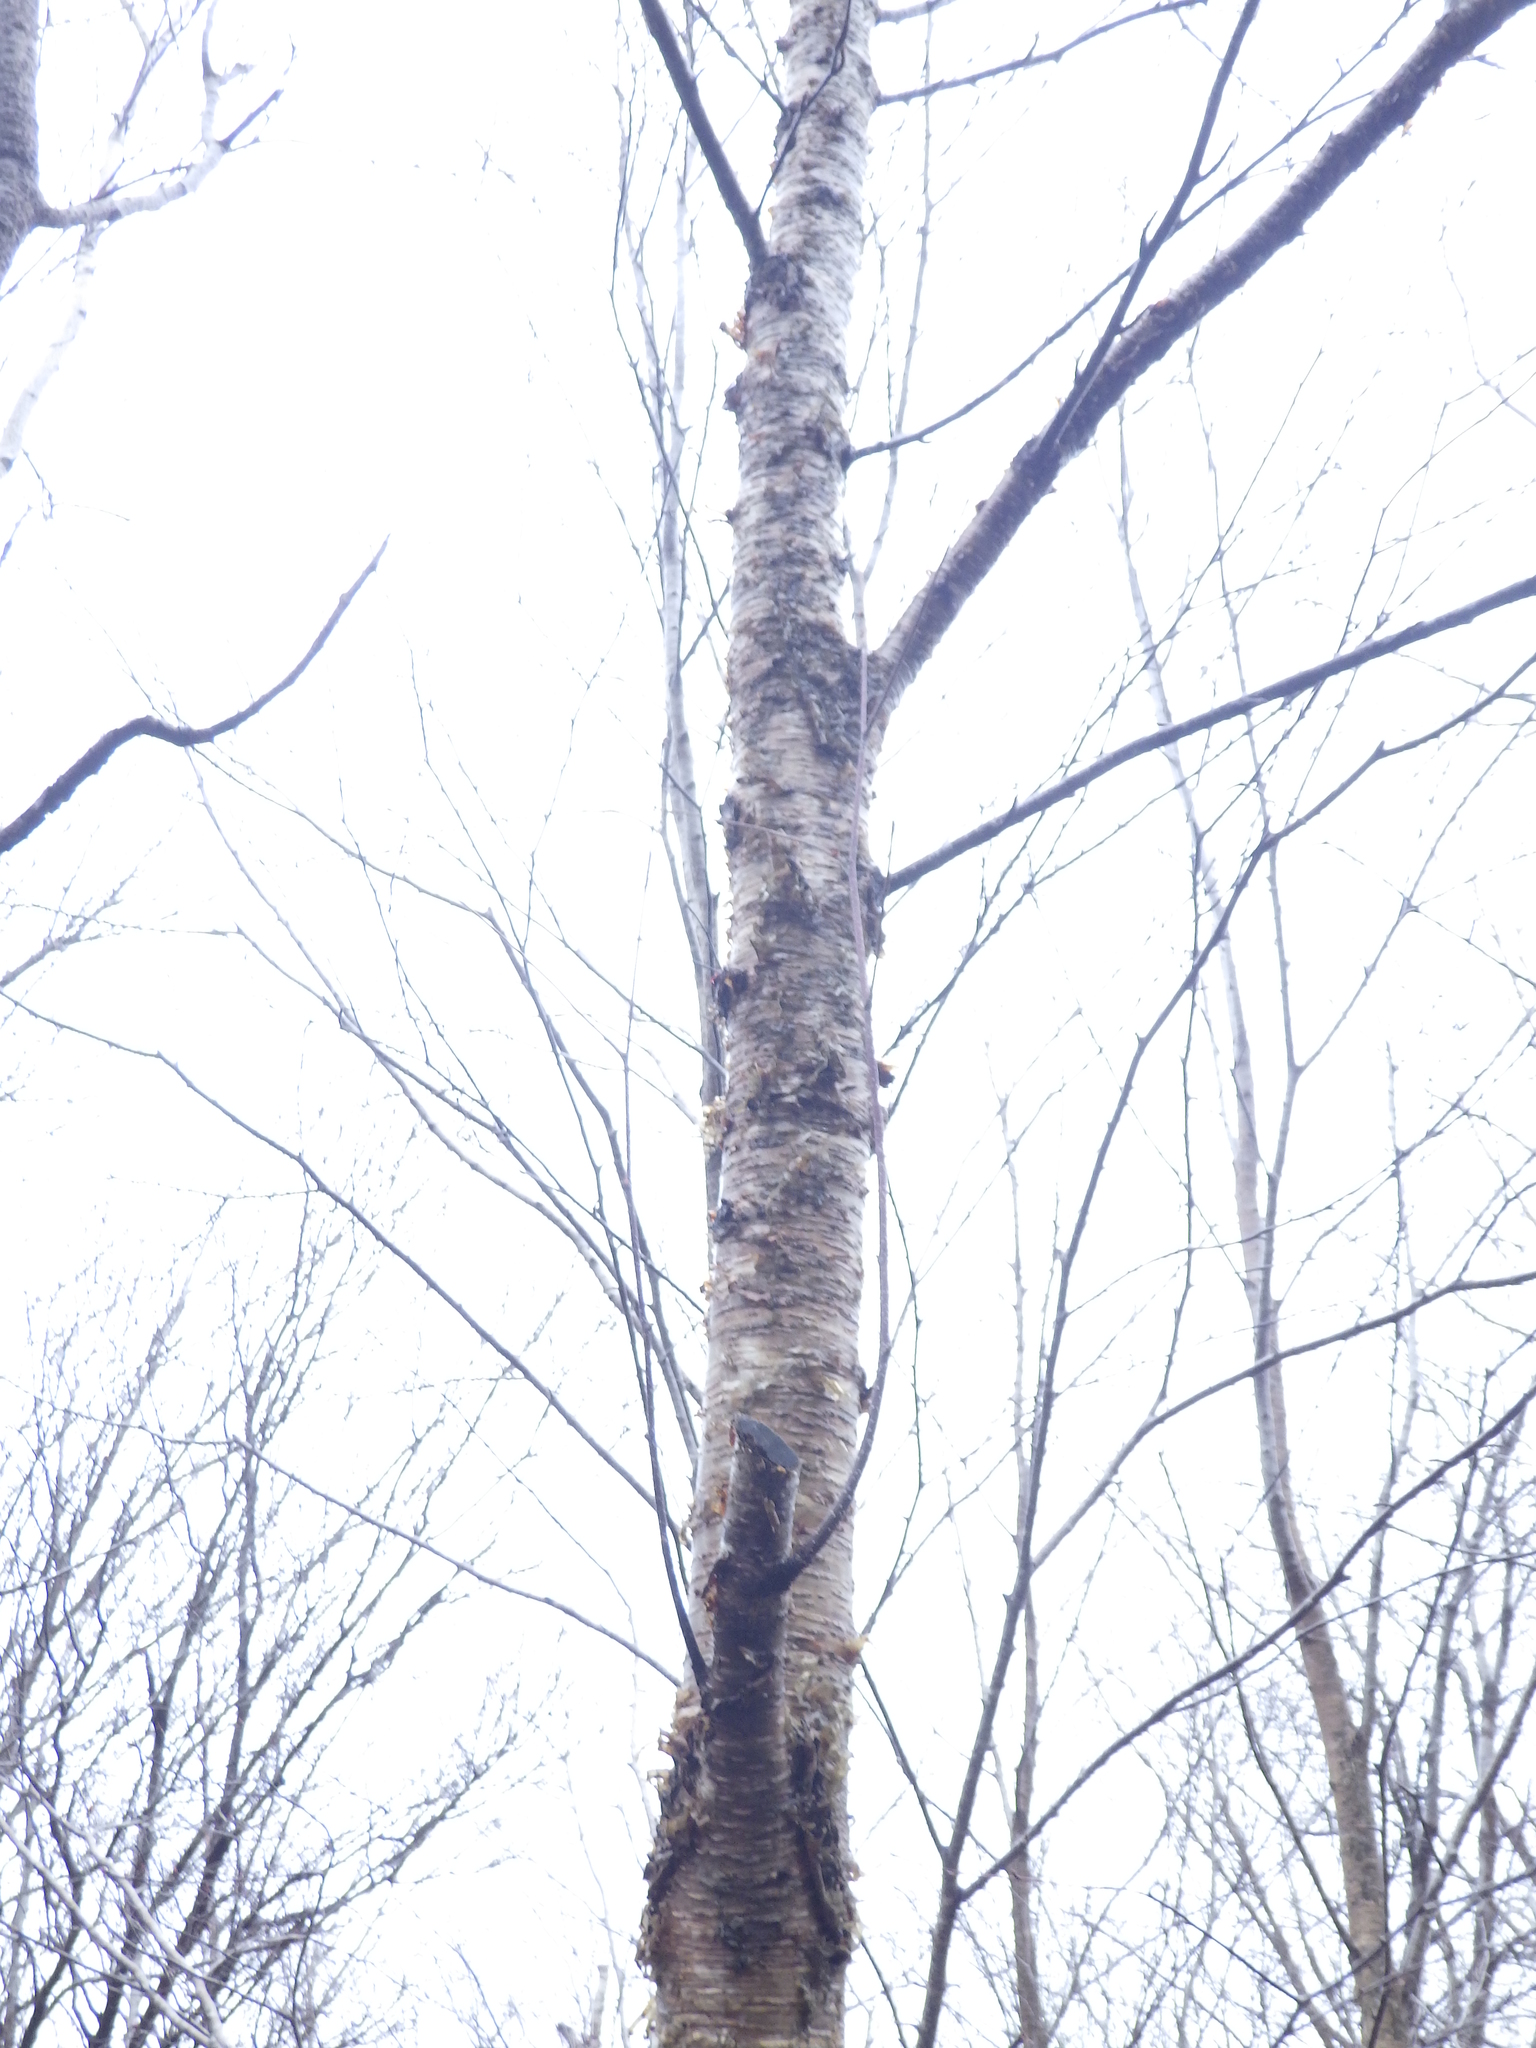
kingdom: Plantae
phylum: Tracheophyta
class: Magnoliopsida
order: Fagales
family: Betulaceae
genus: Betula
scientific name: Betula alleghaniensis
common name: Yellow birch
